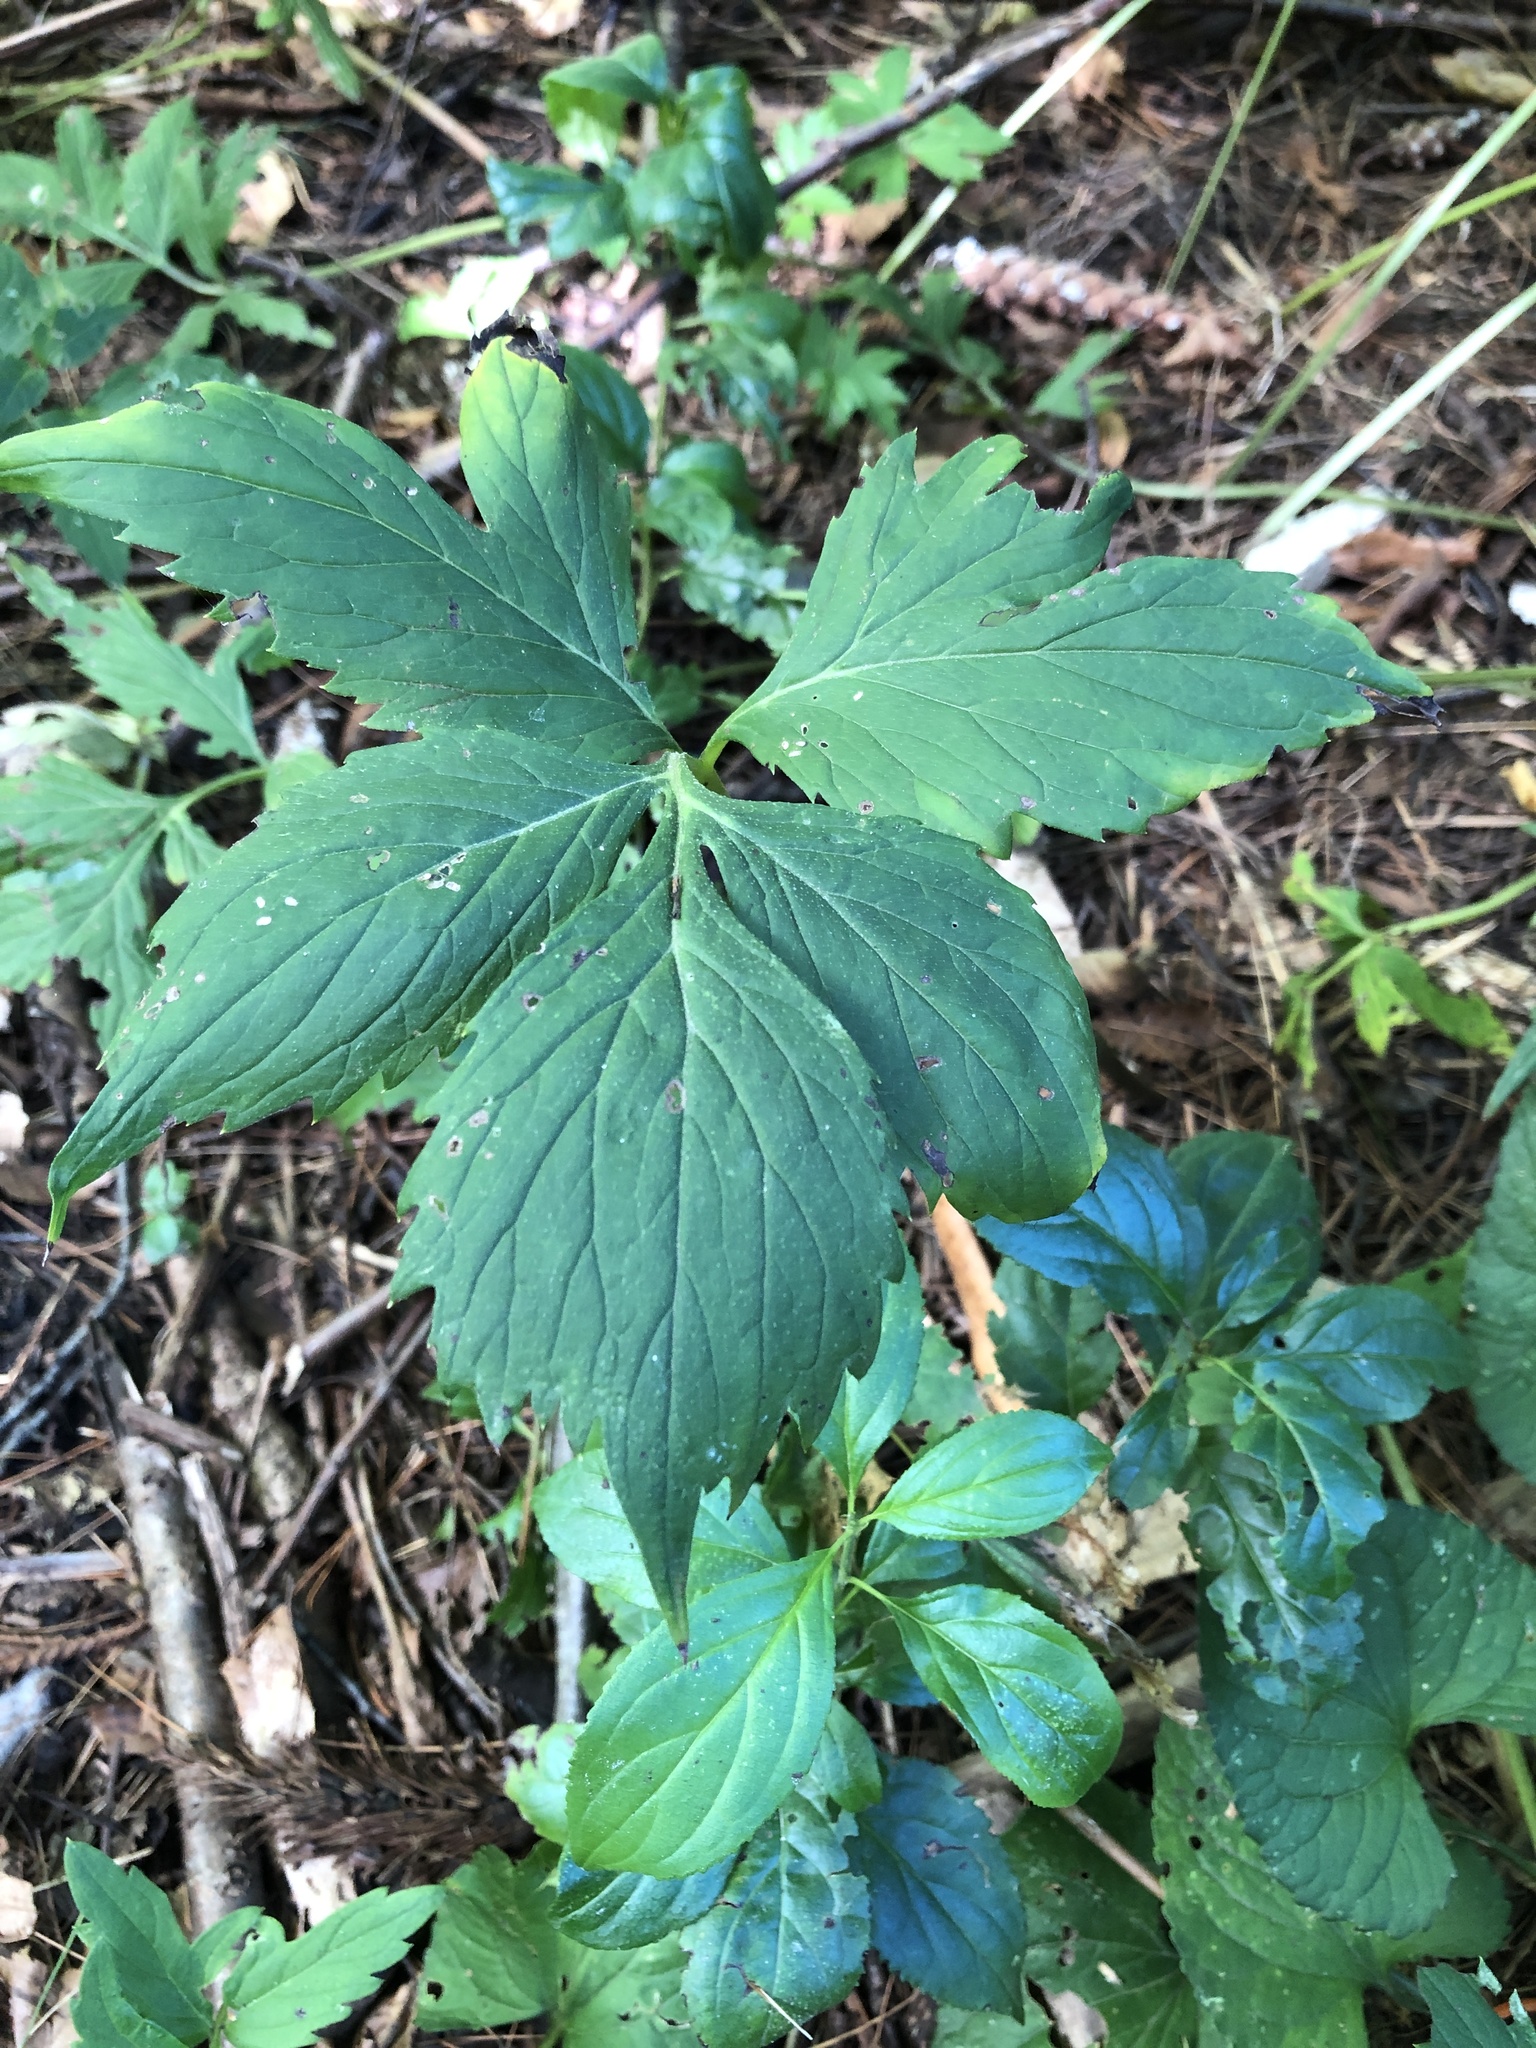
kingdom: Plantae
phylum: Tracheophyta
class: Magnoliopsida
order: Boraginales
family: Hydrophyllaceae
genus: Hydrophyllum
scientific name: Hydrophyllum virginianum
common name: Virginia waterleaf
